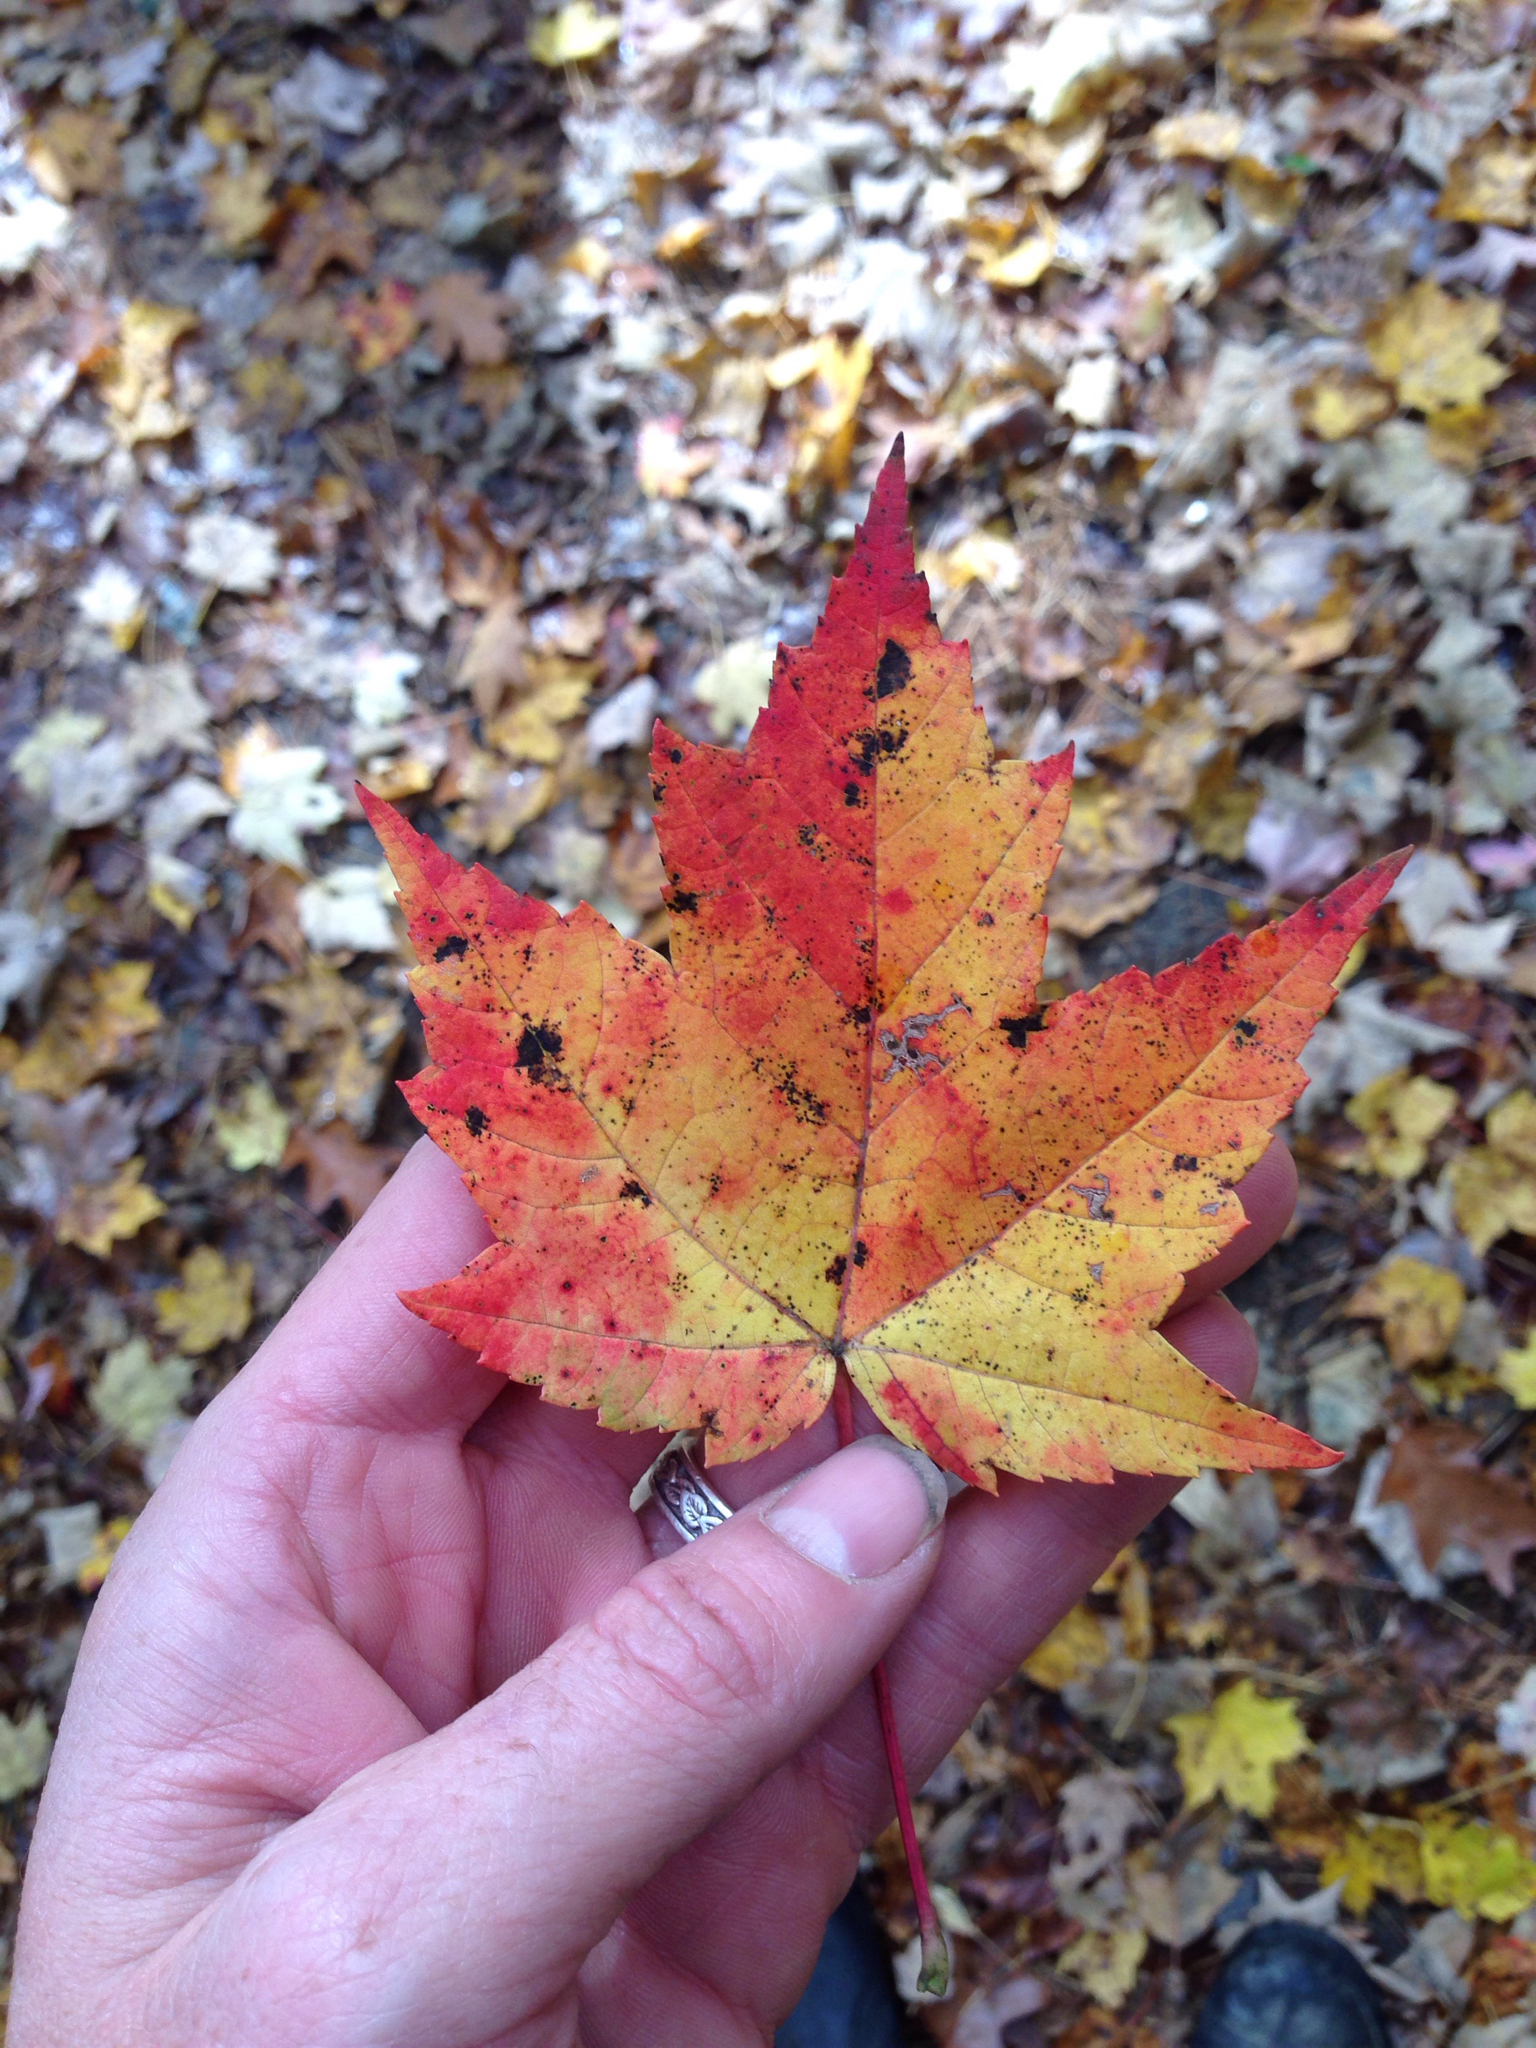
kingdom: Plantae
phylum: Tracheophyta
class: Magnoliopsida
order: Sapindales
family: Sapindaceae
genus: Acer
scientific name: Acer rubrum
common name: Red maple
